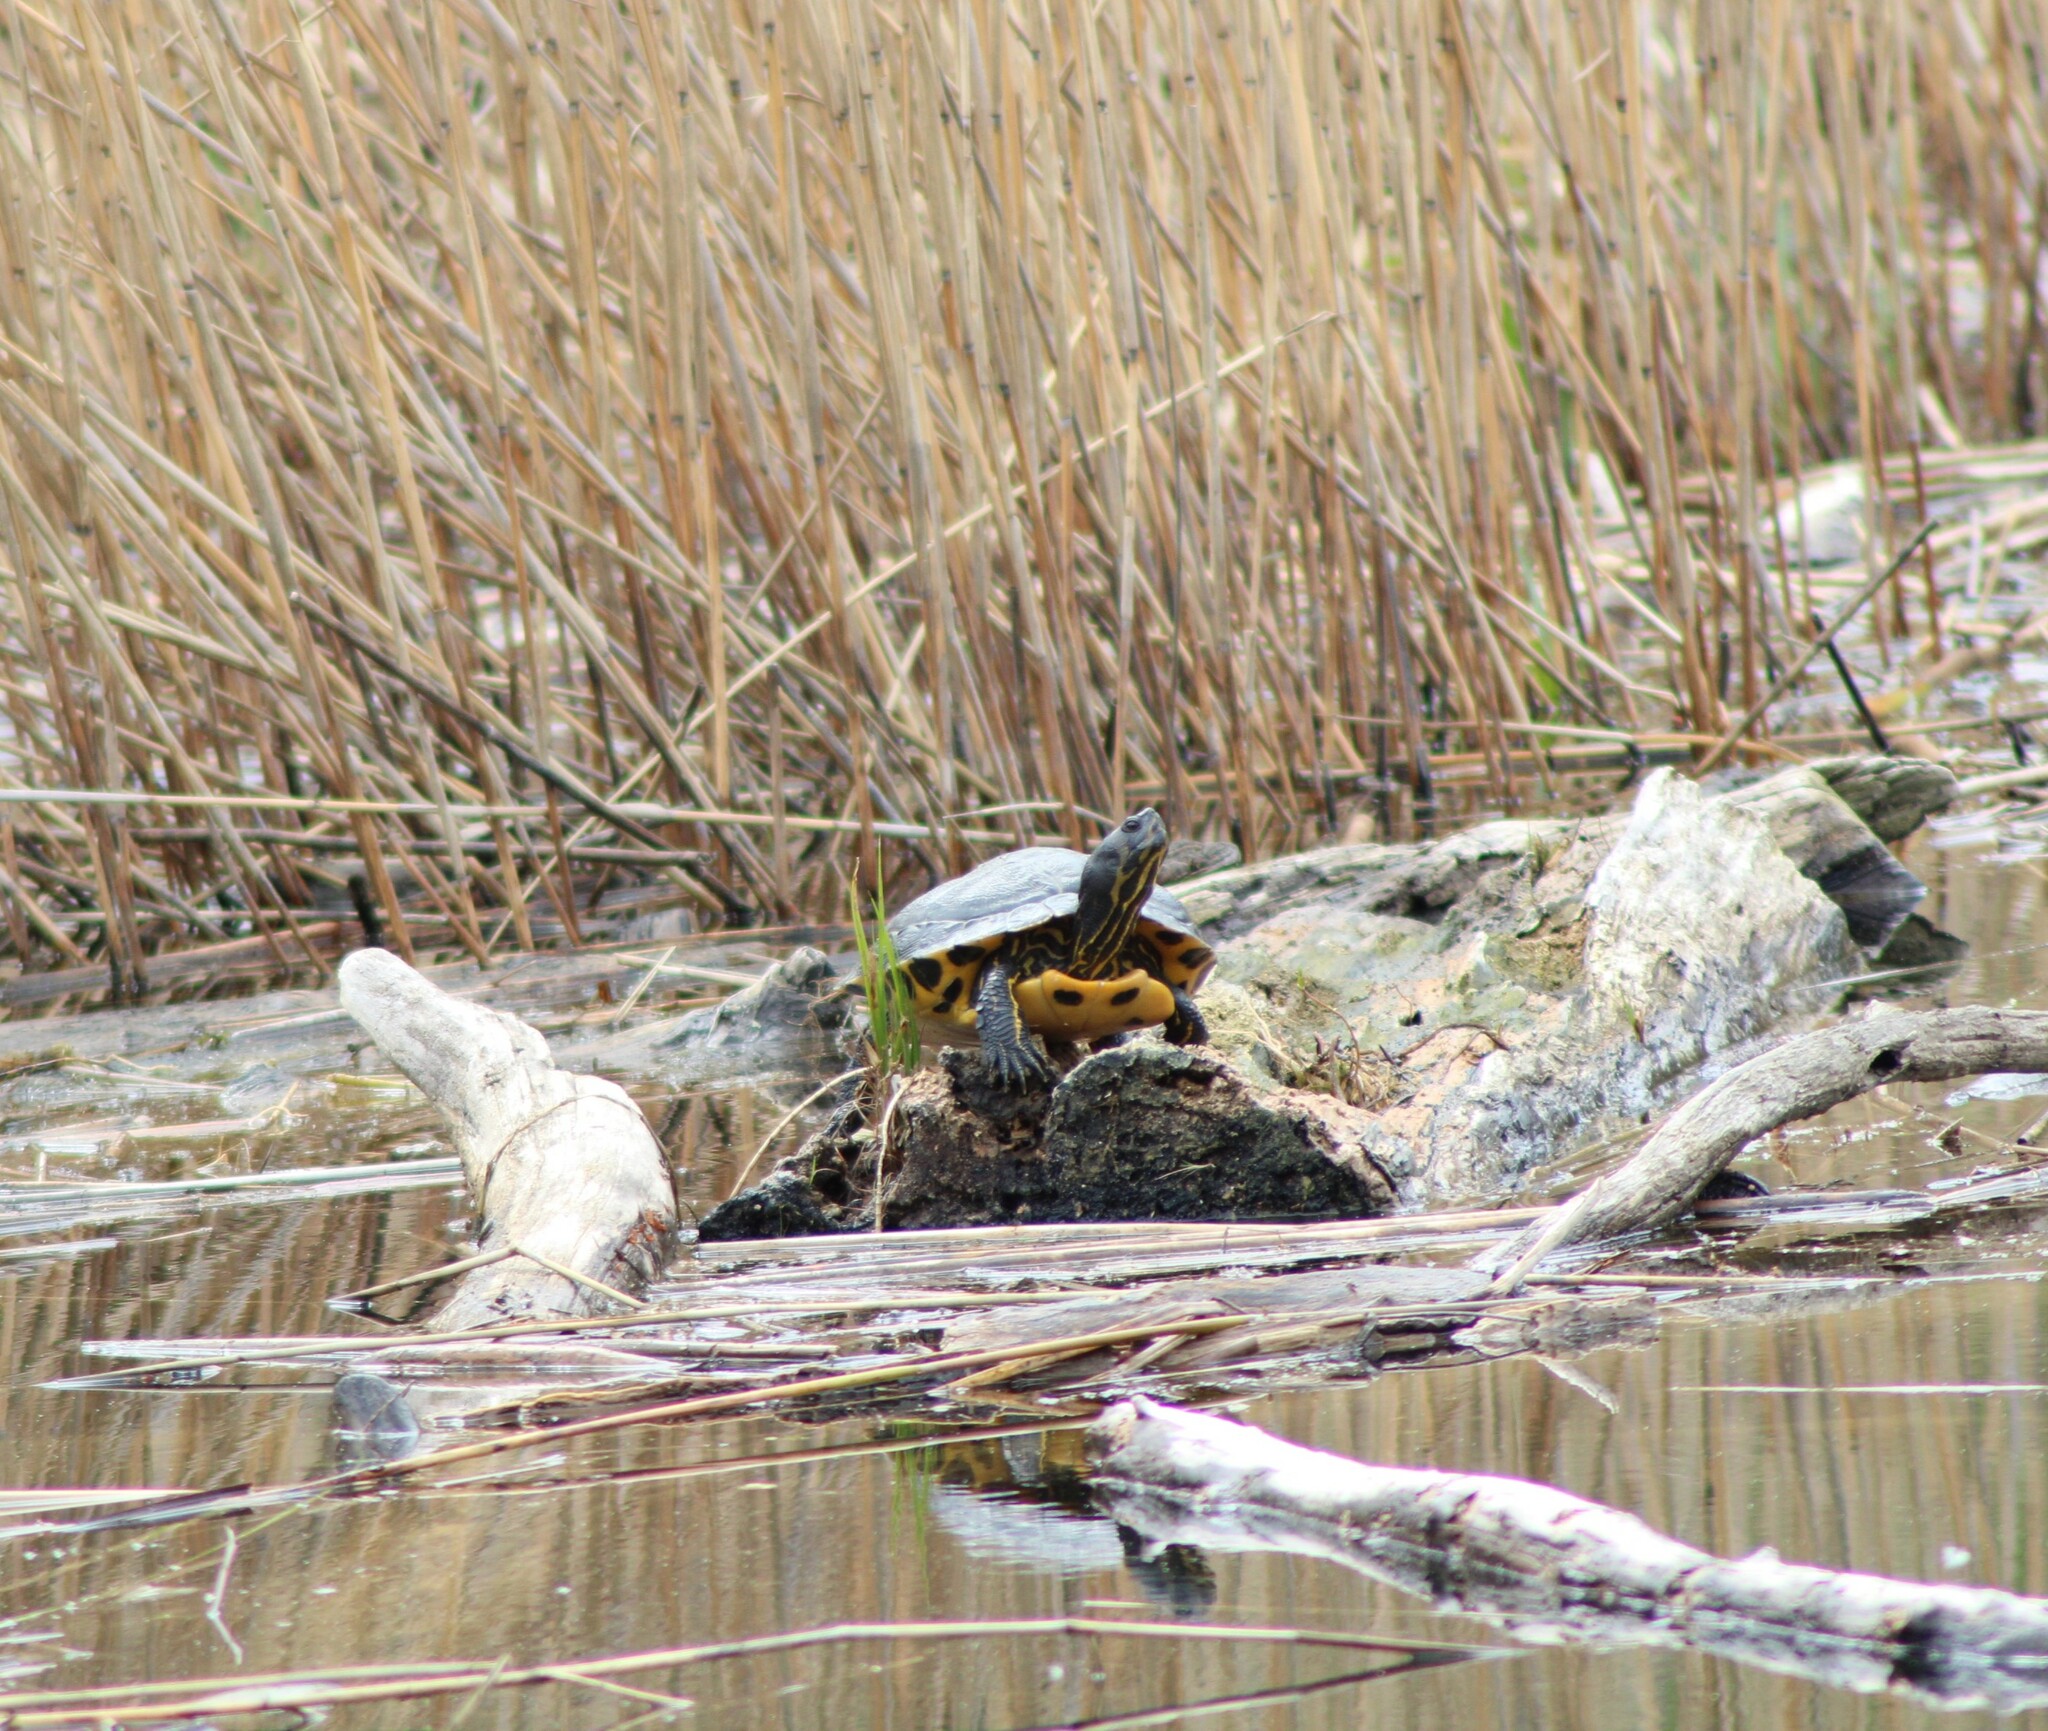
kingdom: Animalia
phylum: Chordata
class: Testudines
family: Emydidae
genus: Trachemys
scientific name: Trachemys scripta
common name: Slider
